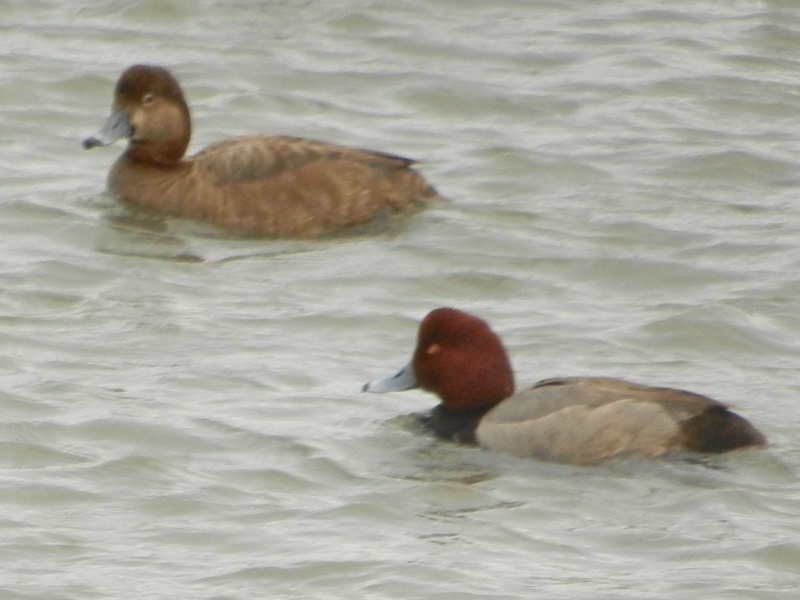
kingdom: Animalia
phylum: Chordata
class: Aves
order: Anseriformes
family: Anatidae
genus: Aythya
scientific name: Aythya americana
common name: Redhead
